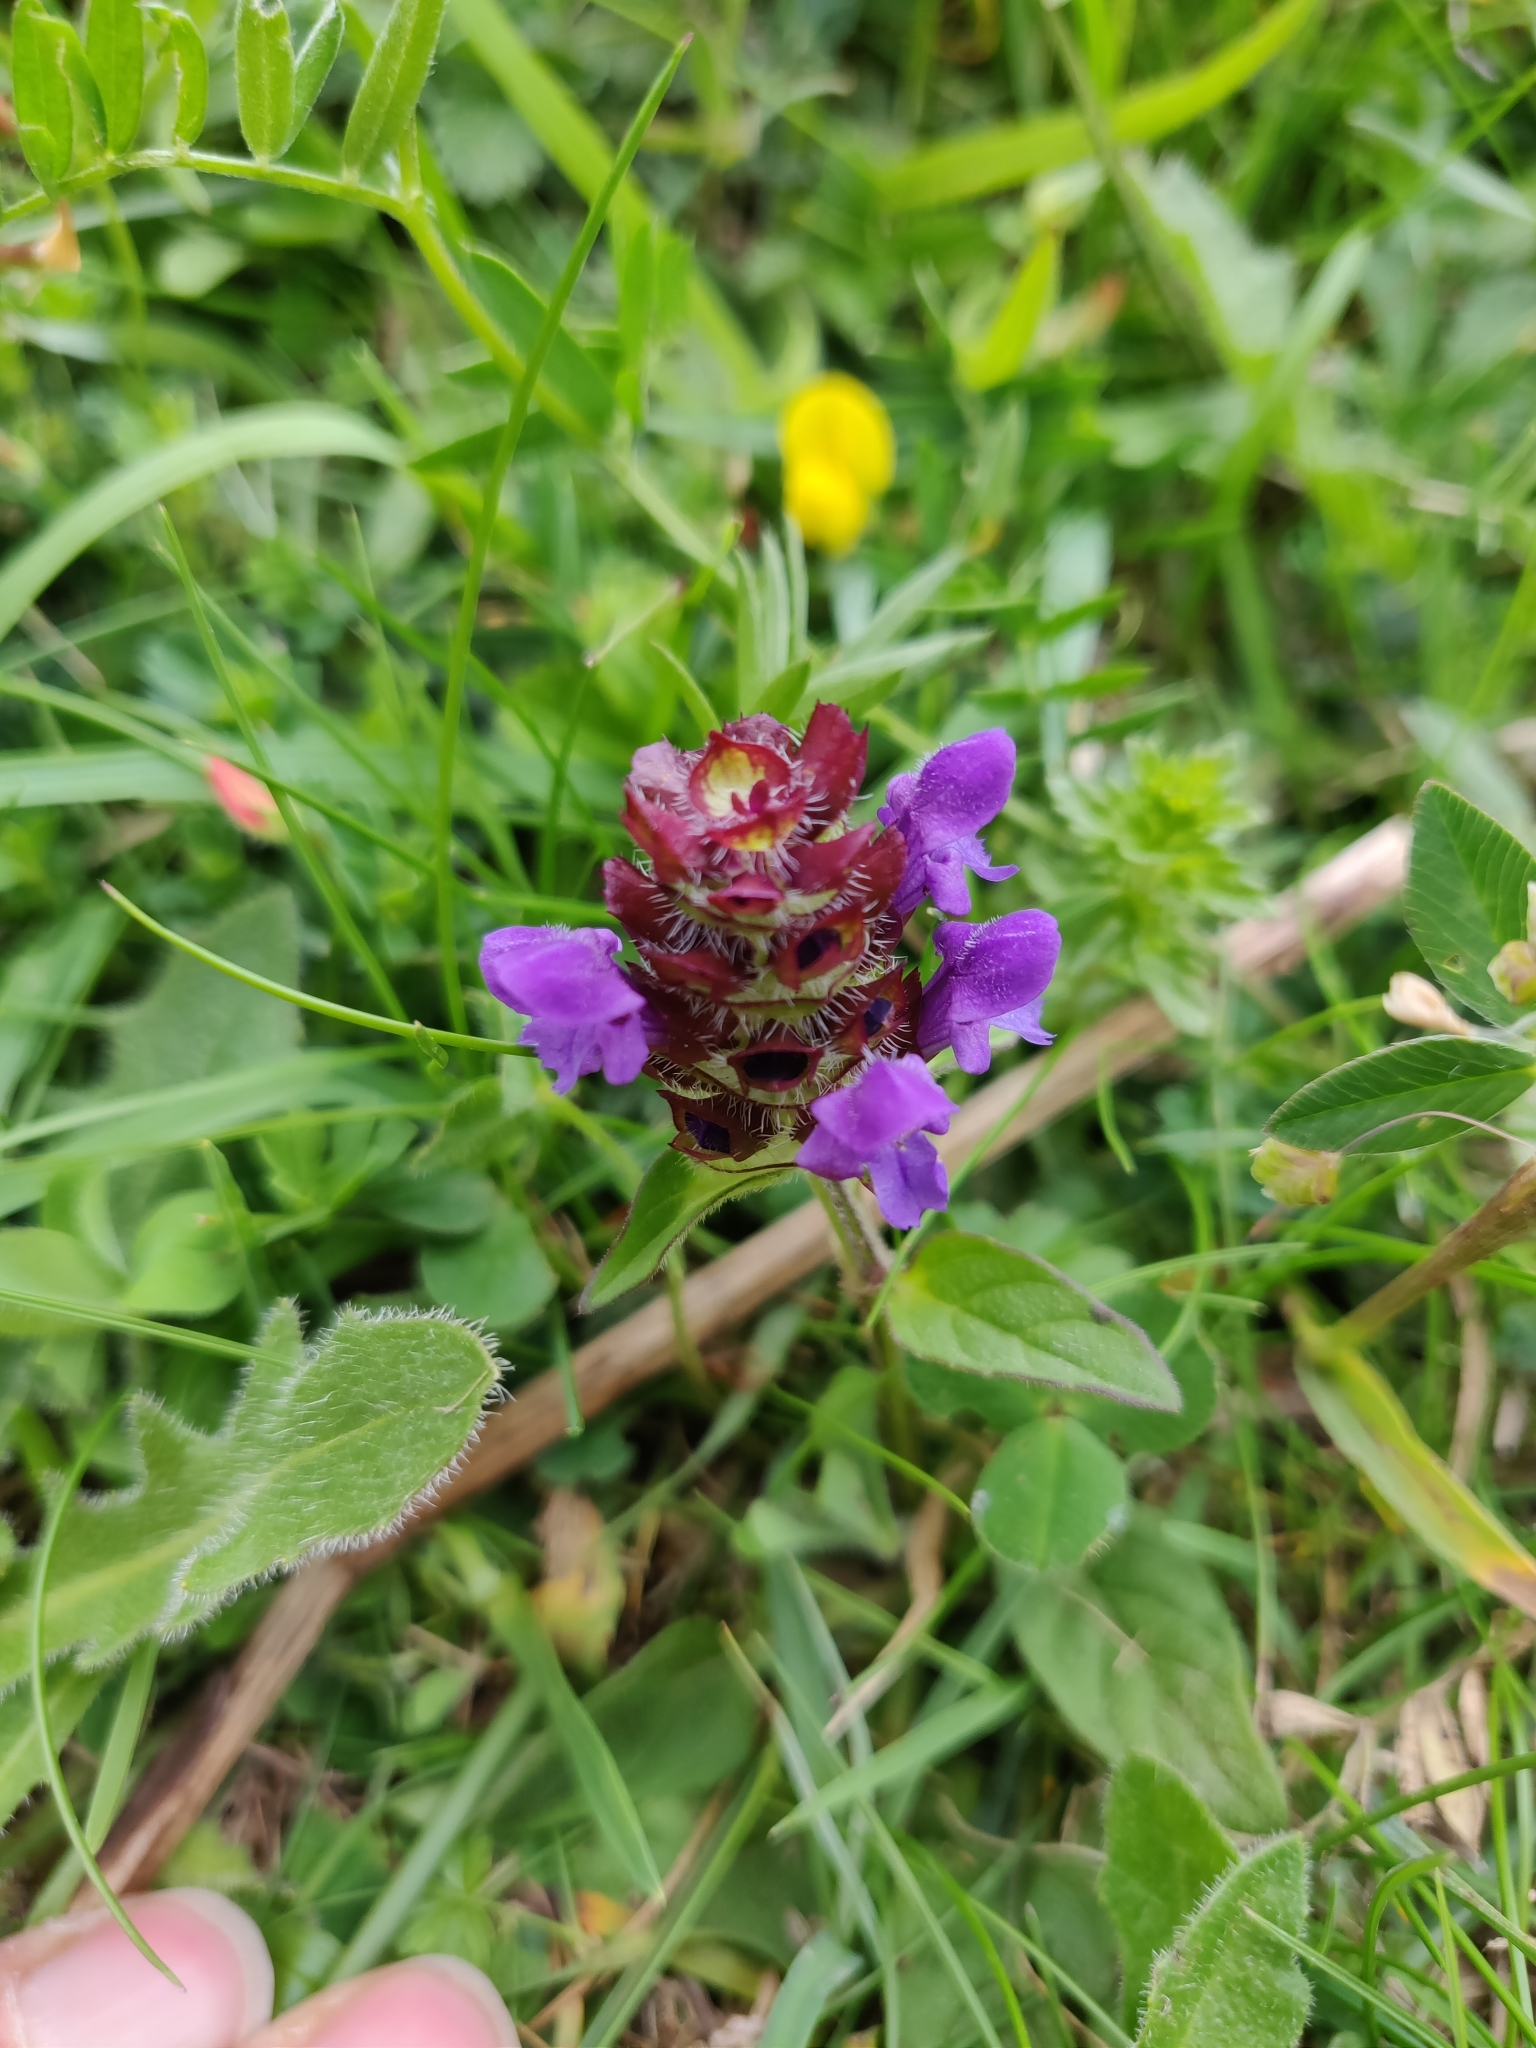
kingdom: Plantae
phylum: Tracheophyta
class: Magnoliopsida
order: Lamiales
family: Lamiaceae
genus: Prunella
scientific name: Prunella vulgaris
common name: Heal-all
